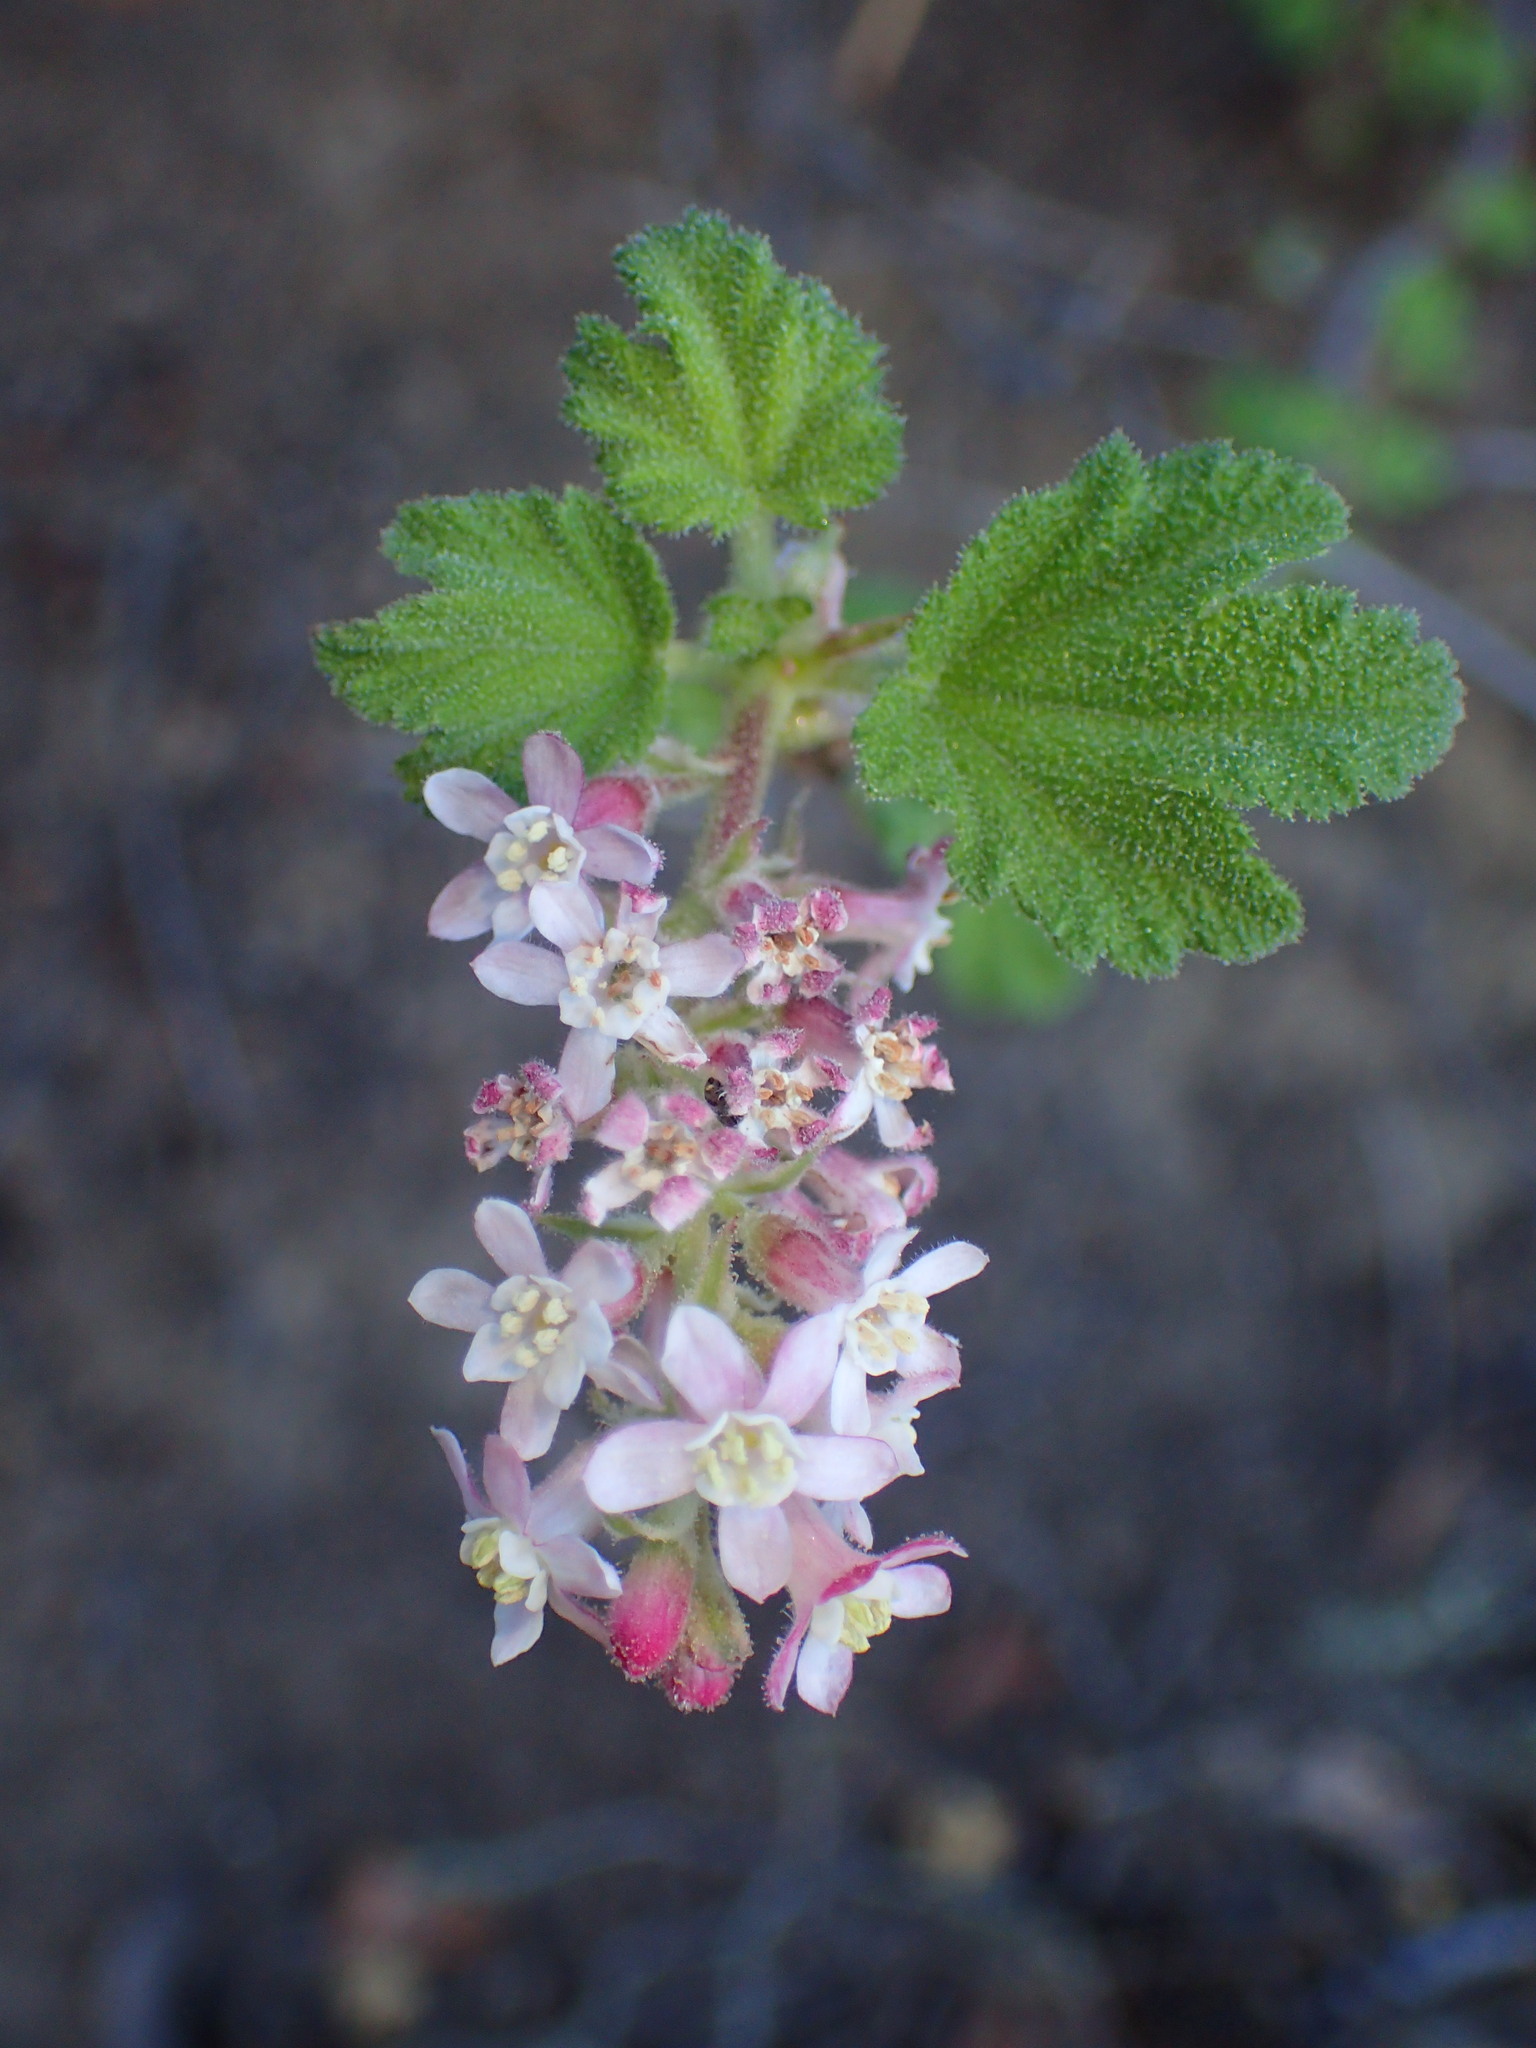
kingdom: Plantae
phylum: Tracheophyta
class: Magnoliopsida
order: Saxifragales
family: Grossulariaceae
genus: Ribes
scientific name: Ribes malvaceum
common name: Chaparral currant
